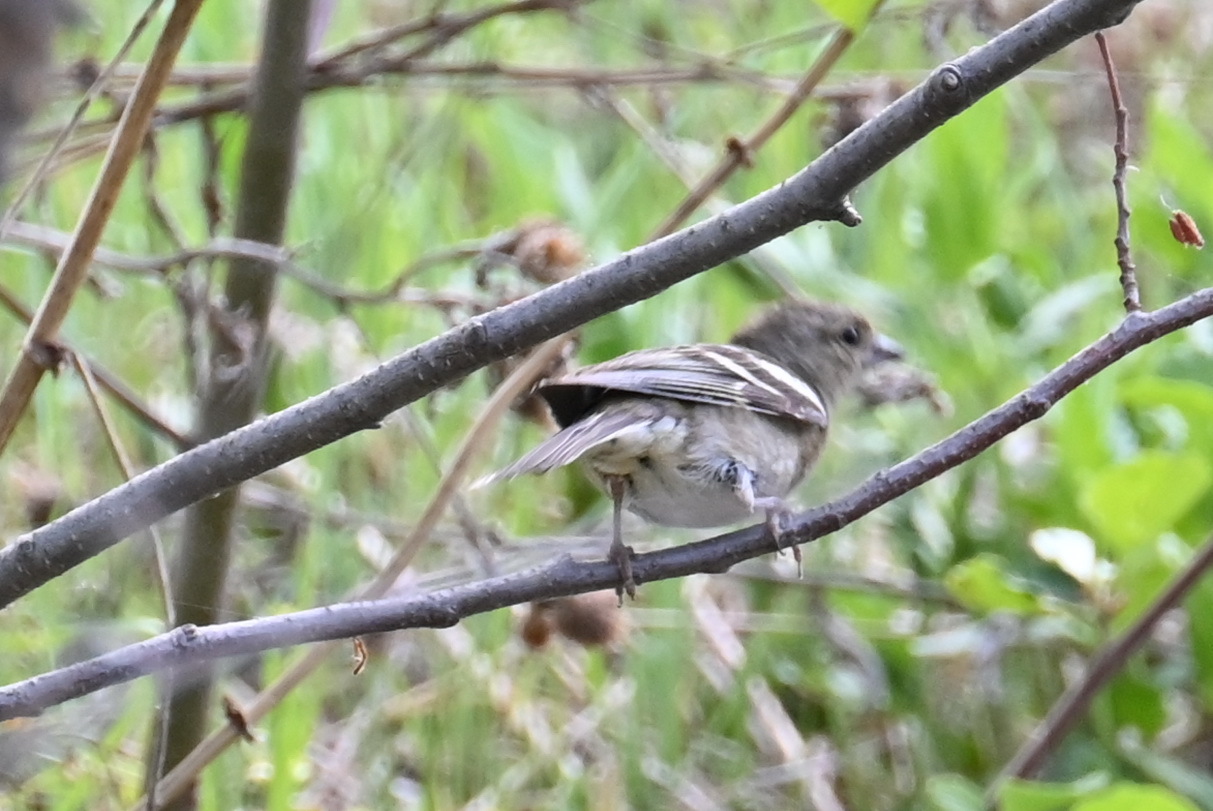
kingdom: Animalia
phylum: Chordata
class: Aves
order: Passeriformes
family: Fringillidae
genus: Fringilla
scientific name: Fringilla coelebs
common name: Common chaffinch
